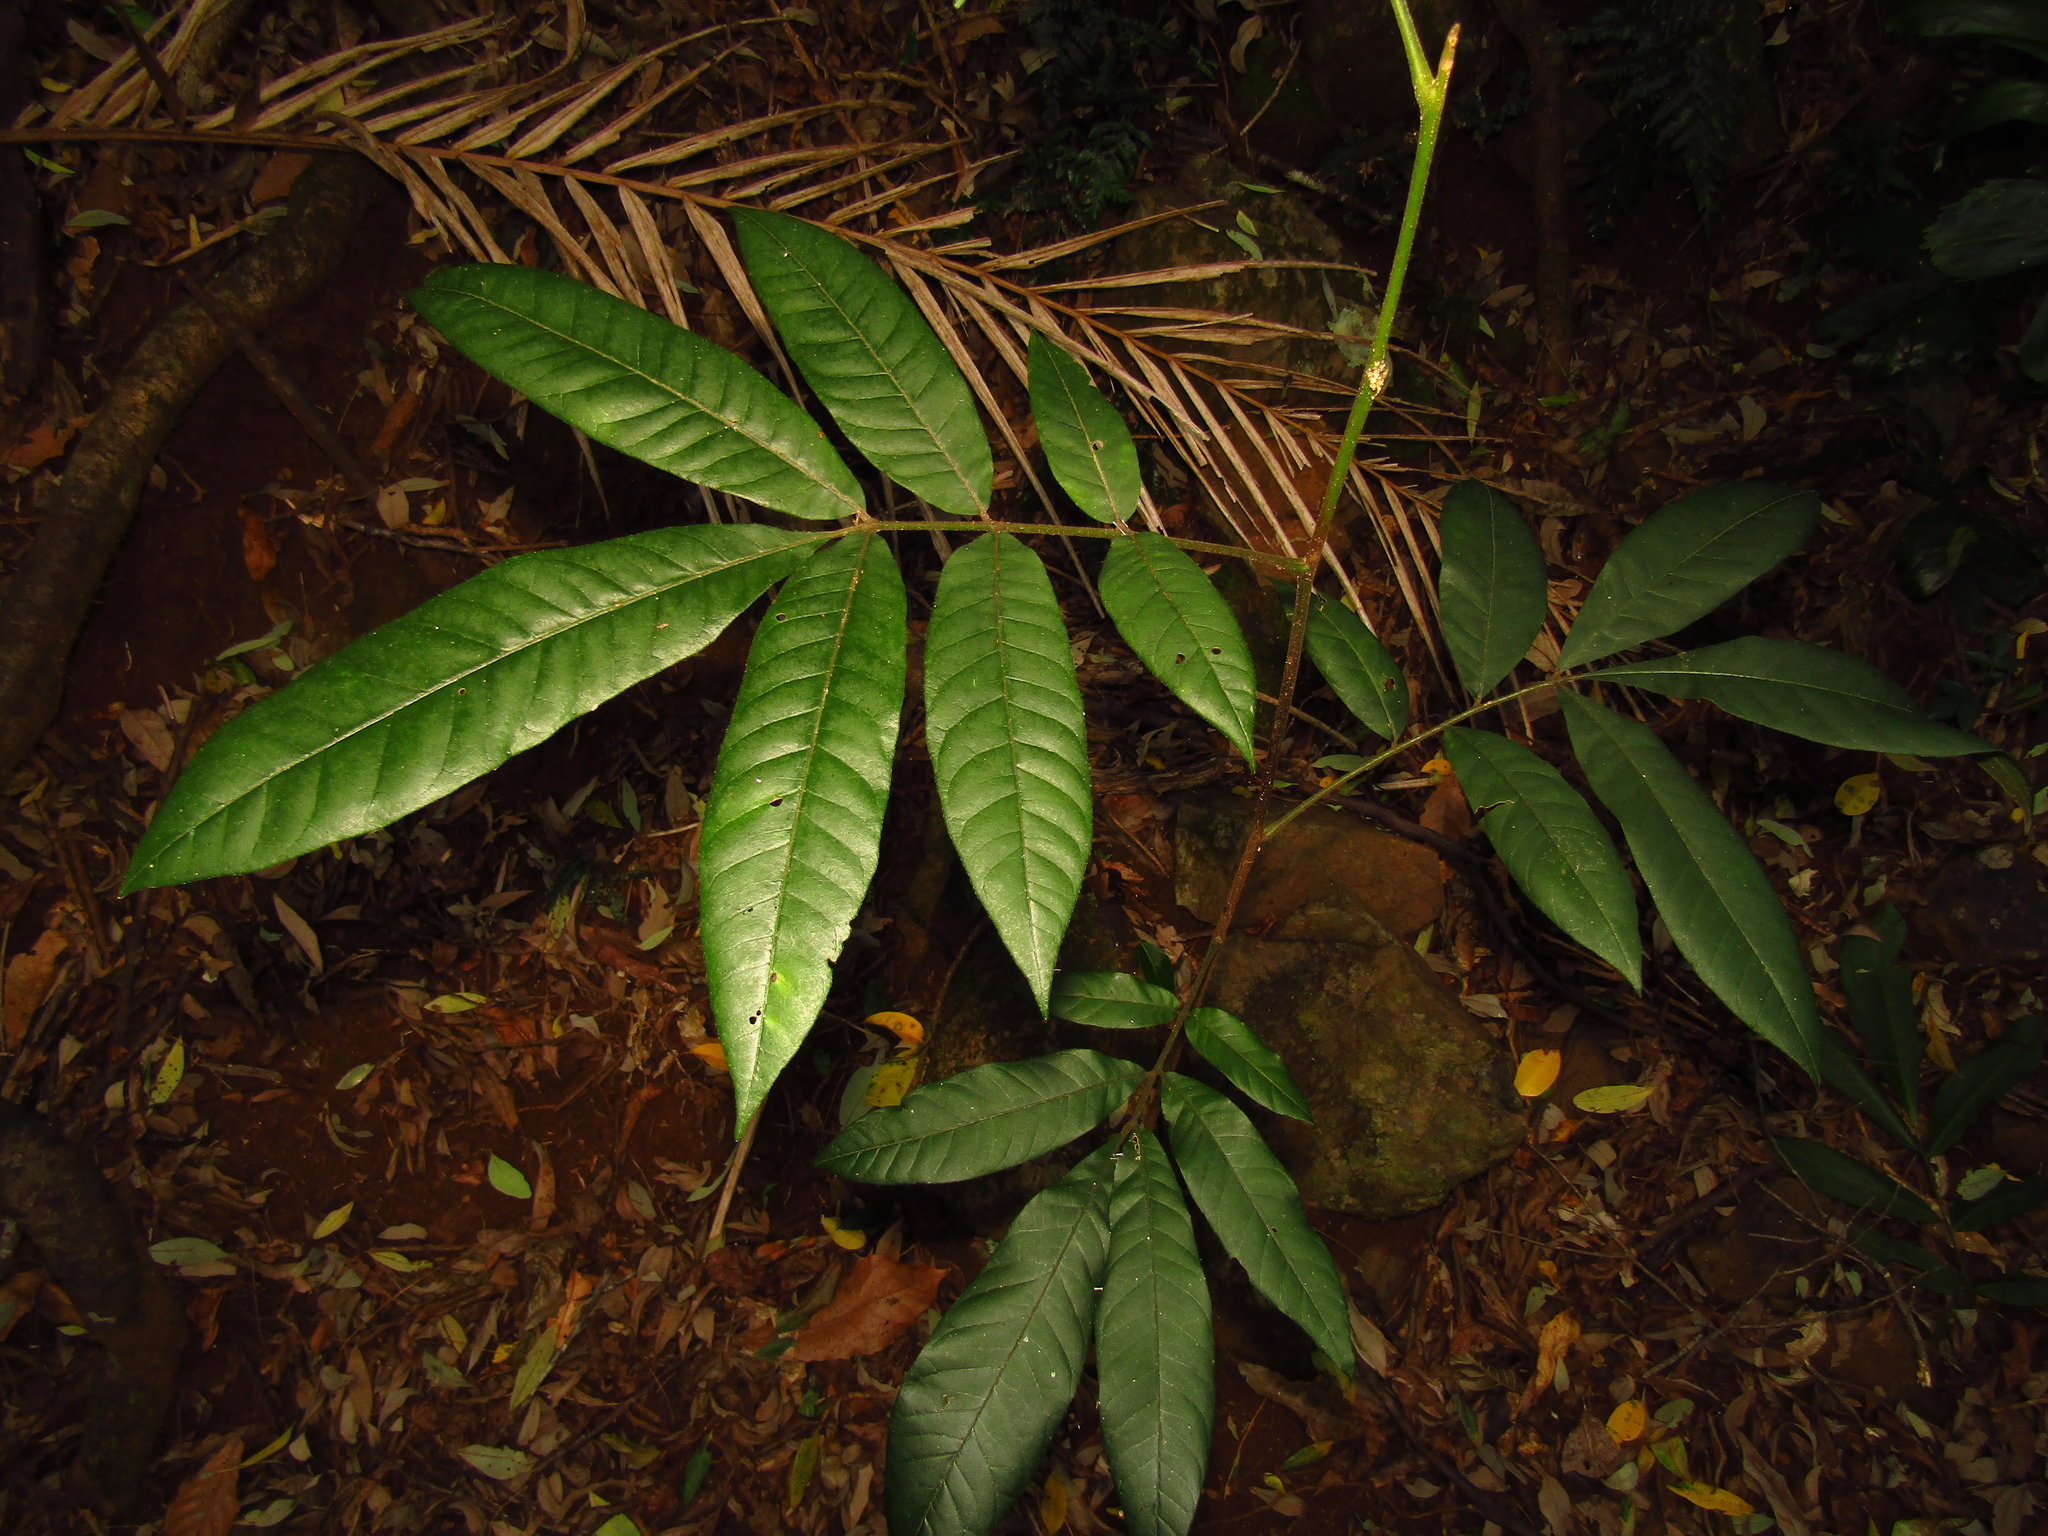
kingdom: Plantae
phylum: Tracheophyta
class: Magnoliopsida
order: Sapindales
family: Meliaceae
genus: Didymocheton
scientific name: Didymocheton rufus
